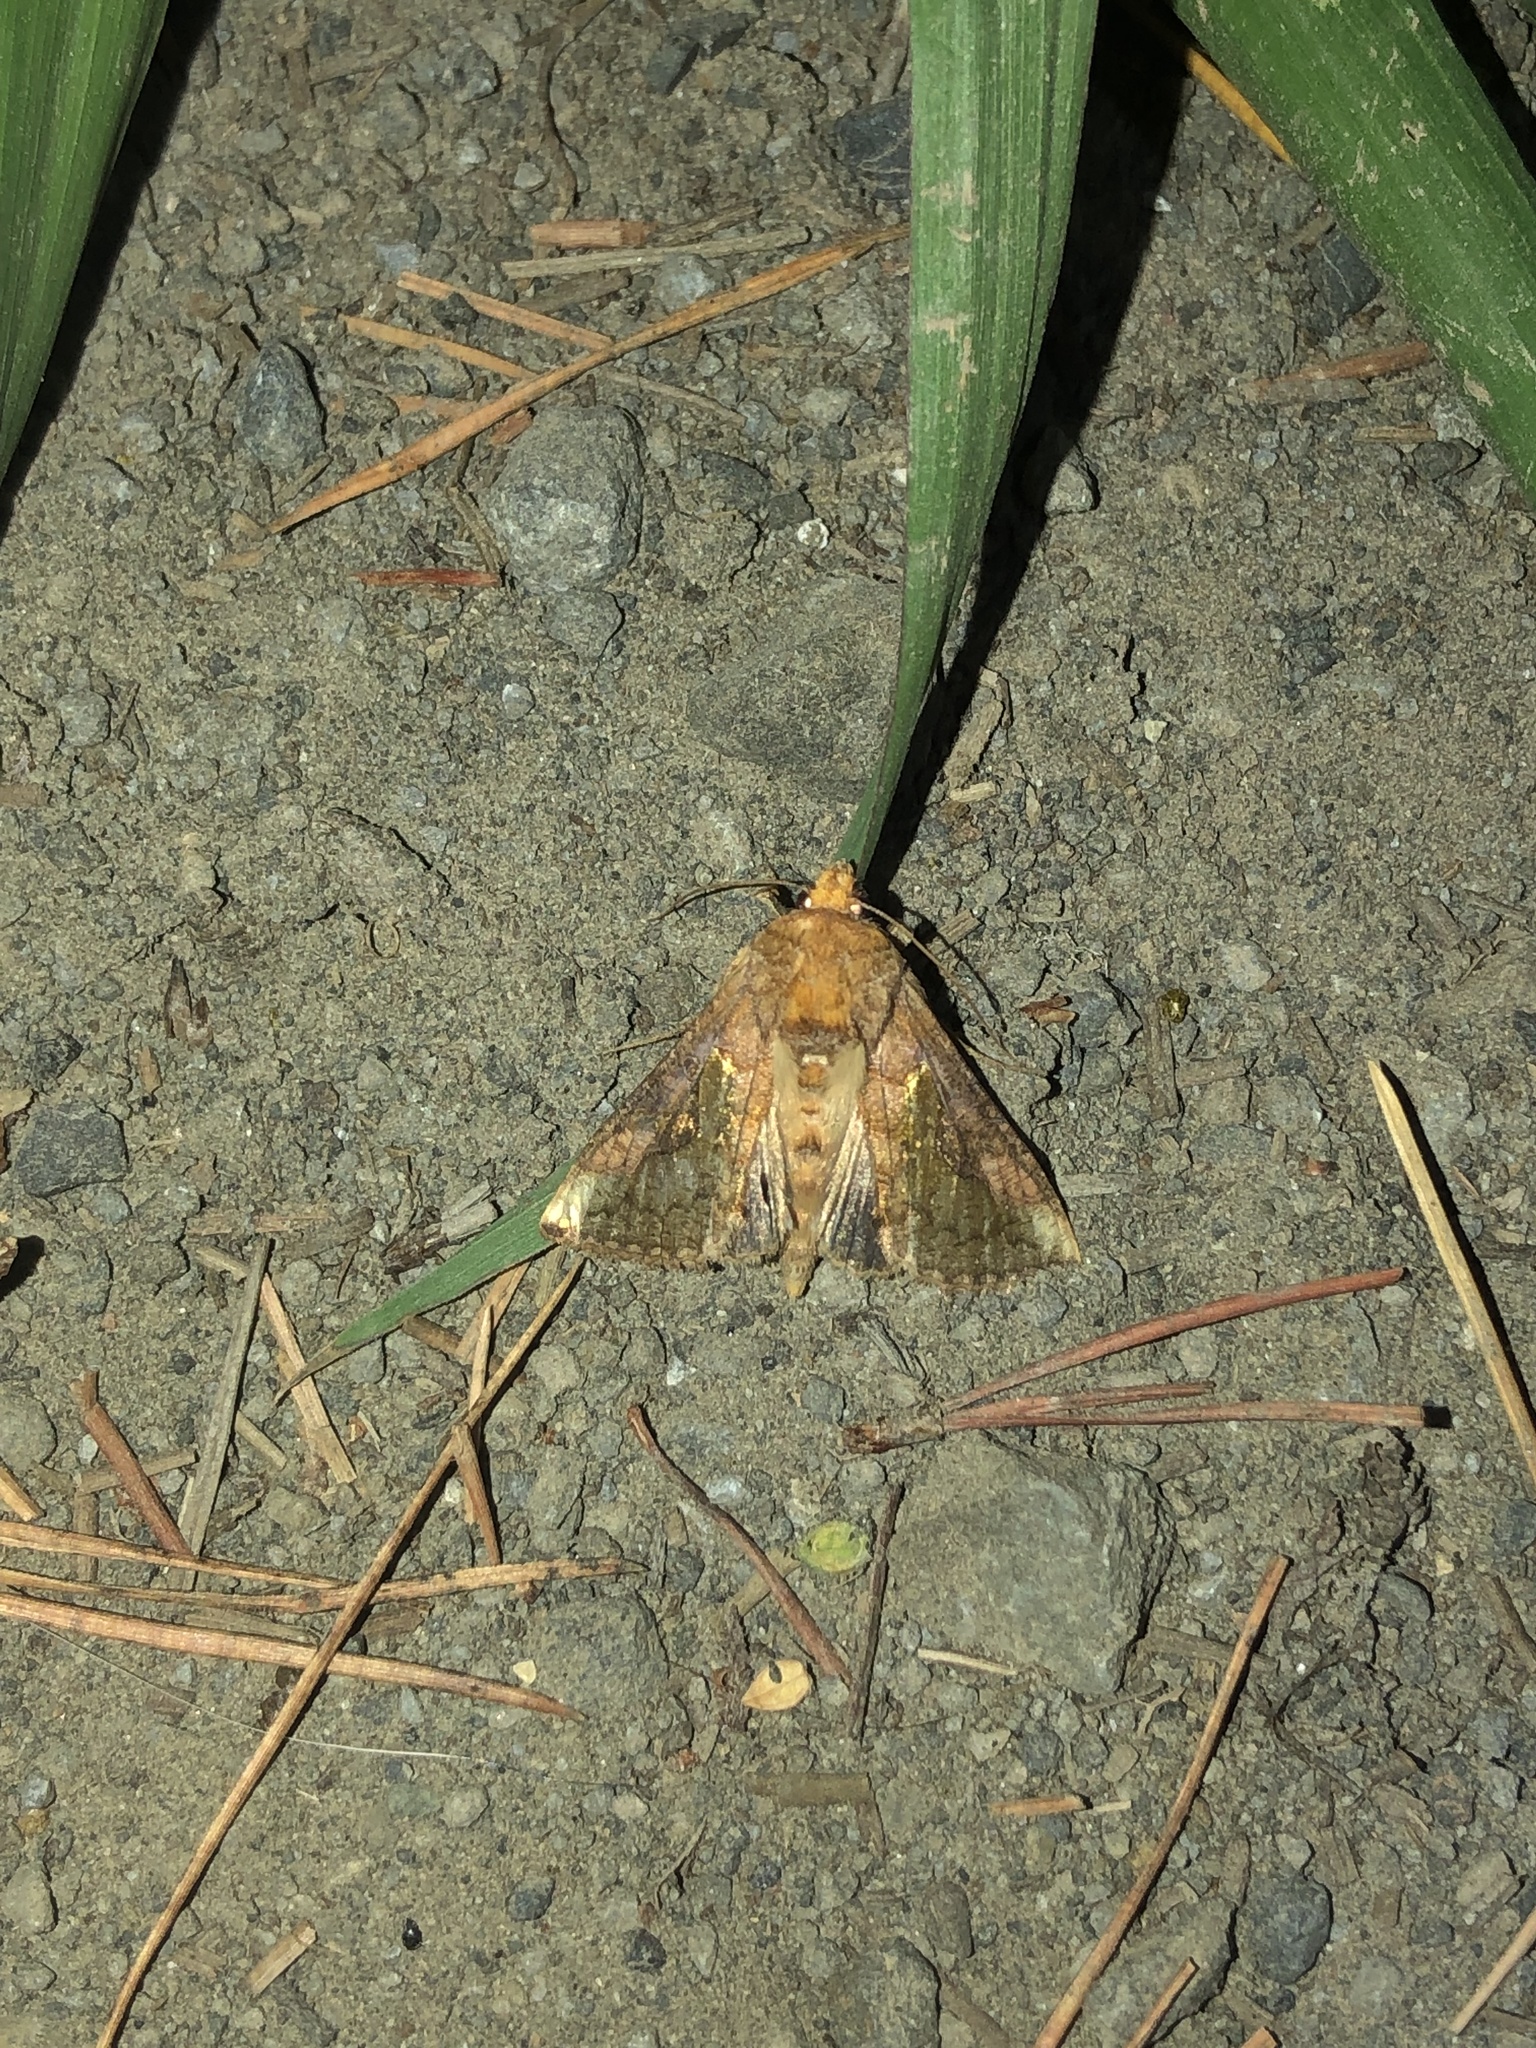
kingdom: Animalia
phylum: Arthropoda
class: Insecta
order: Lepidoptera
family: Noctuidae
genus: Thysanoplusia
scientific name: Thysanoplusia orichalcea
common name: Slender burnished brass, golden plusia
